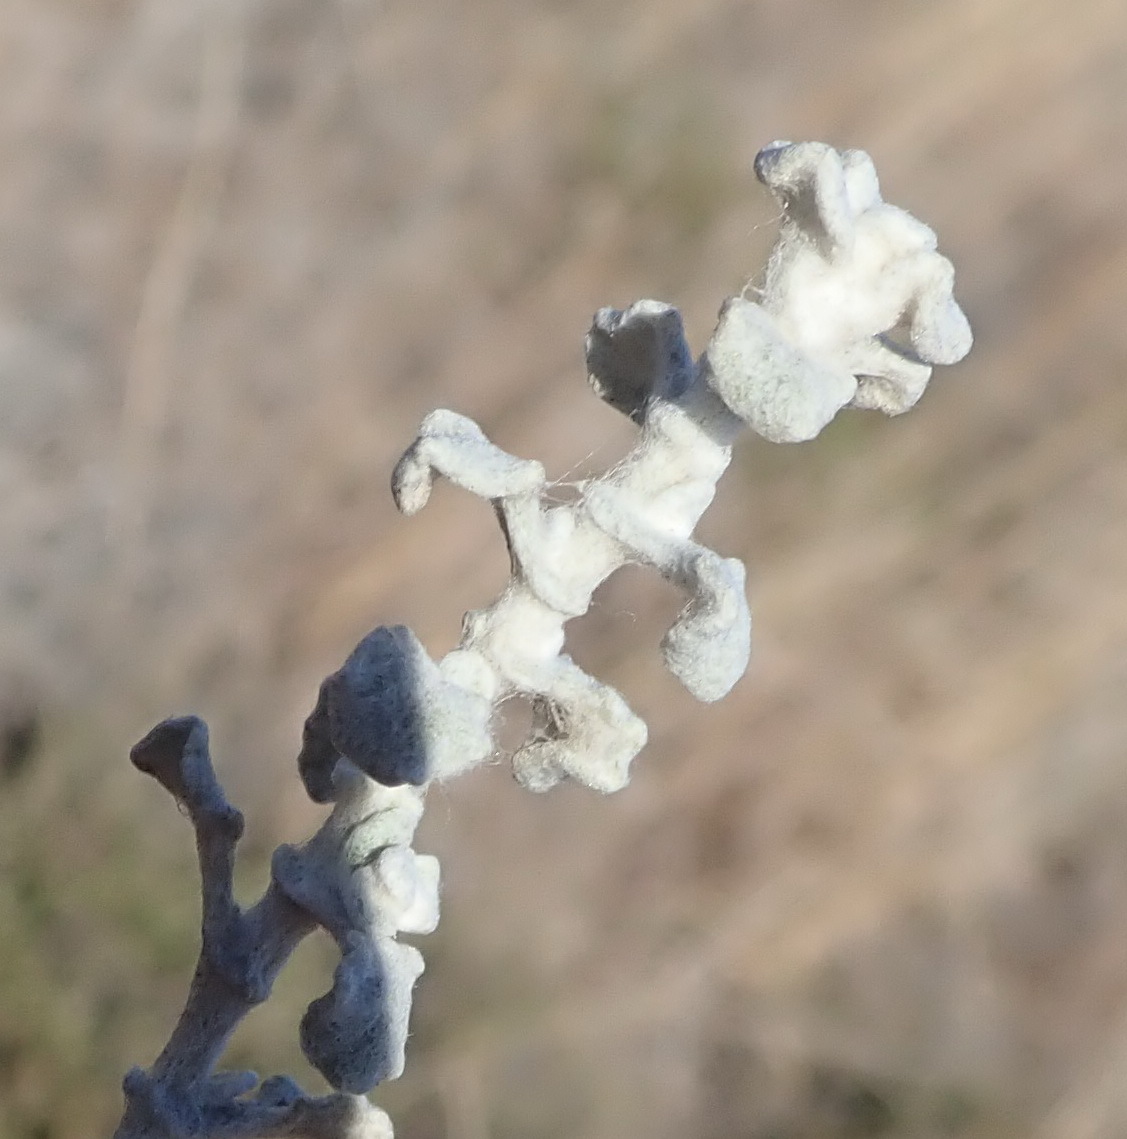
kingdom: Plantae
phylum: Tracheophyta
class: Magnoliopsida
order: Asterales
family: Asteraceae
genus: Helichrysum
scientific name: Helichrysum patulum
